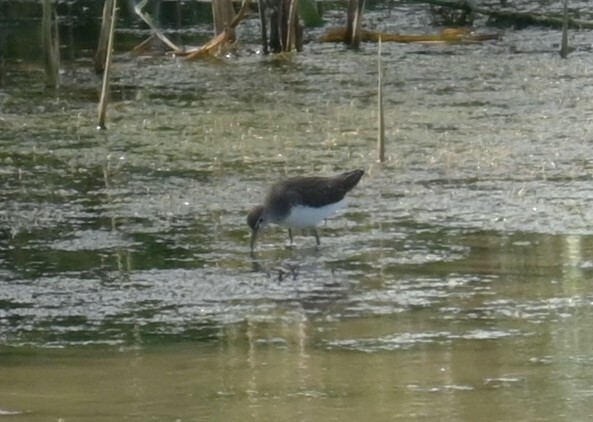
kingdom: Animalia
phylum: Chordata
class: Aves
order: Charadriiformes
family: Scolopacidae
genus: Tringa
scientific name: Tringa ochropus
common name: Green sandpiper
